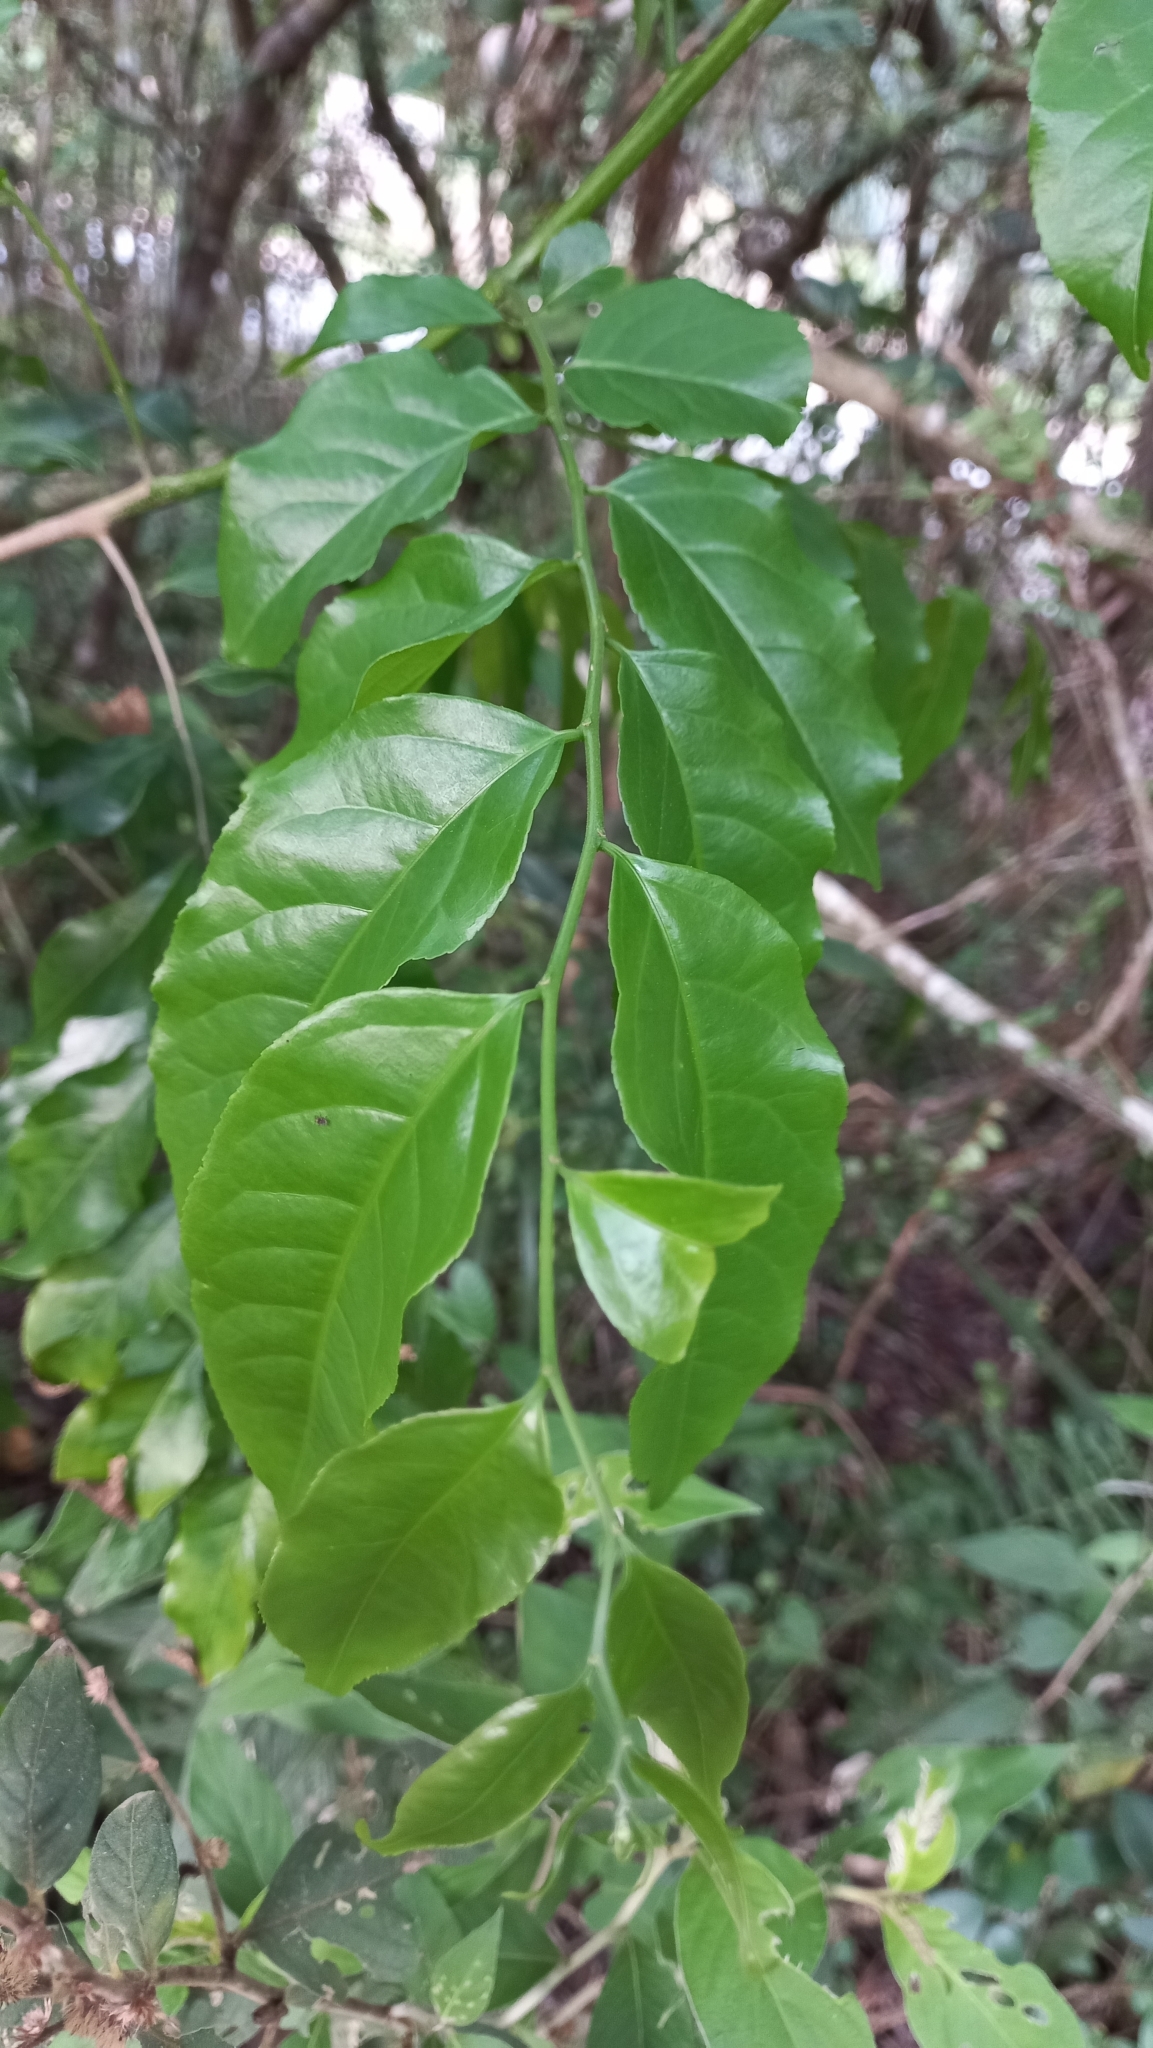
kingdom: Plantae
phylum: Tracheophyta
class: Magnoliopsida
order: Malpighiales
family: Salicaceae
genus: Casearia
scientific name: Casearia sylvestris
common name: Wild sage
